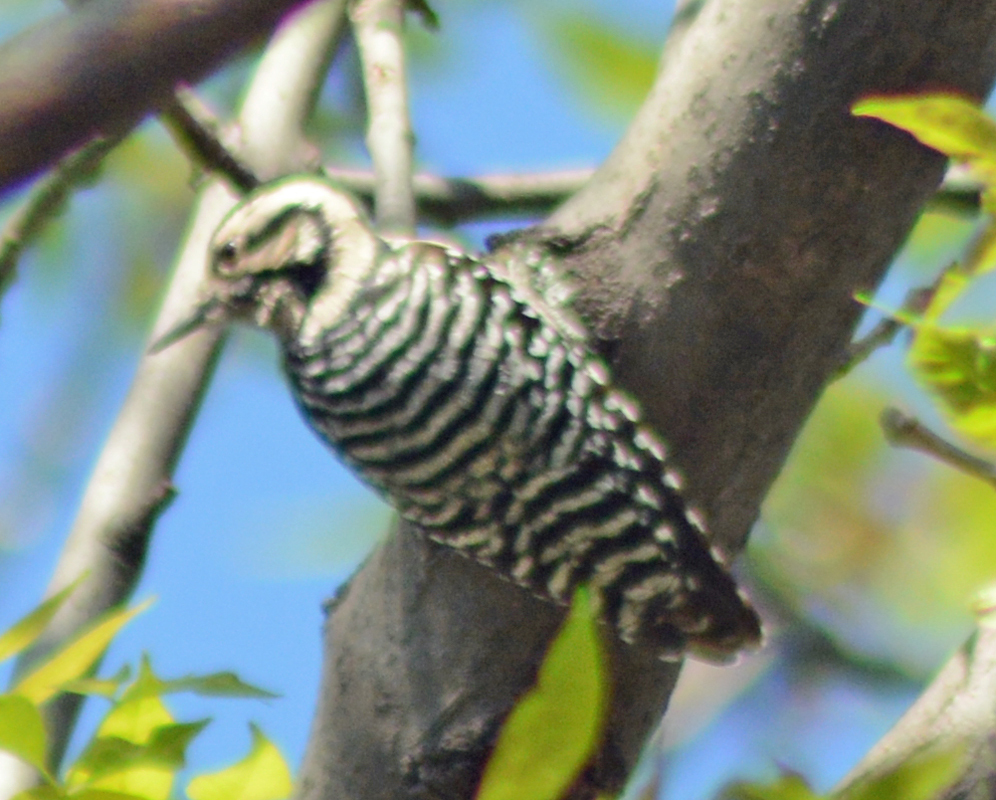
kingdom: Animalia
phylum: Chordata
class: Aves
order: Piciformes
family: Picidae
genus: Dryobates
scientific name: Dryobates scalaris
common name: Ladder-backed woodpecker
